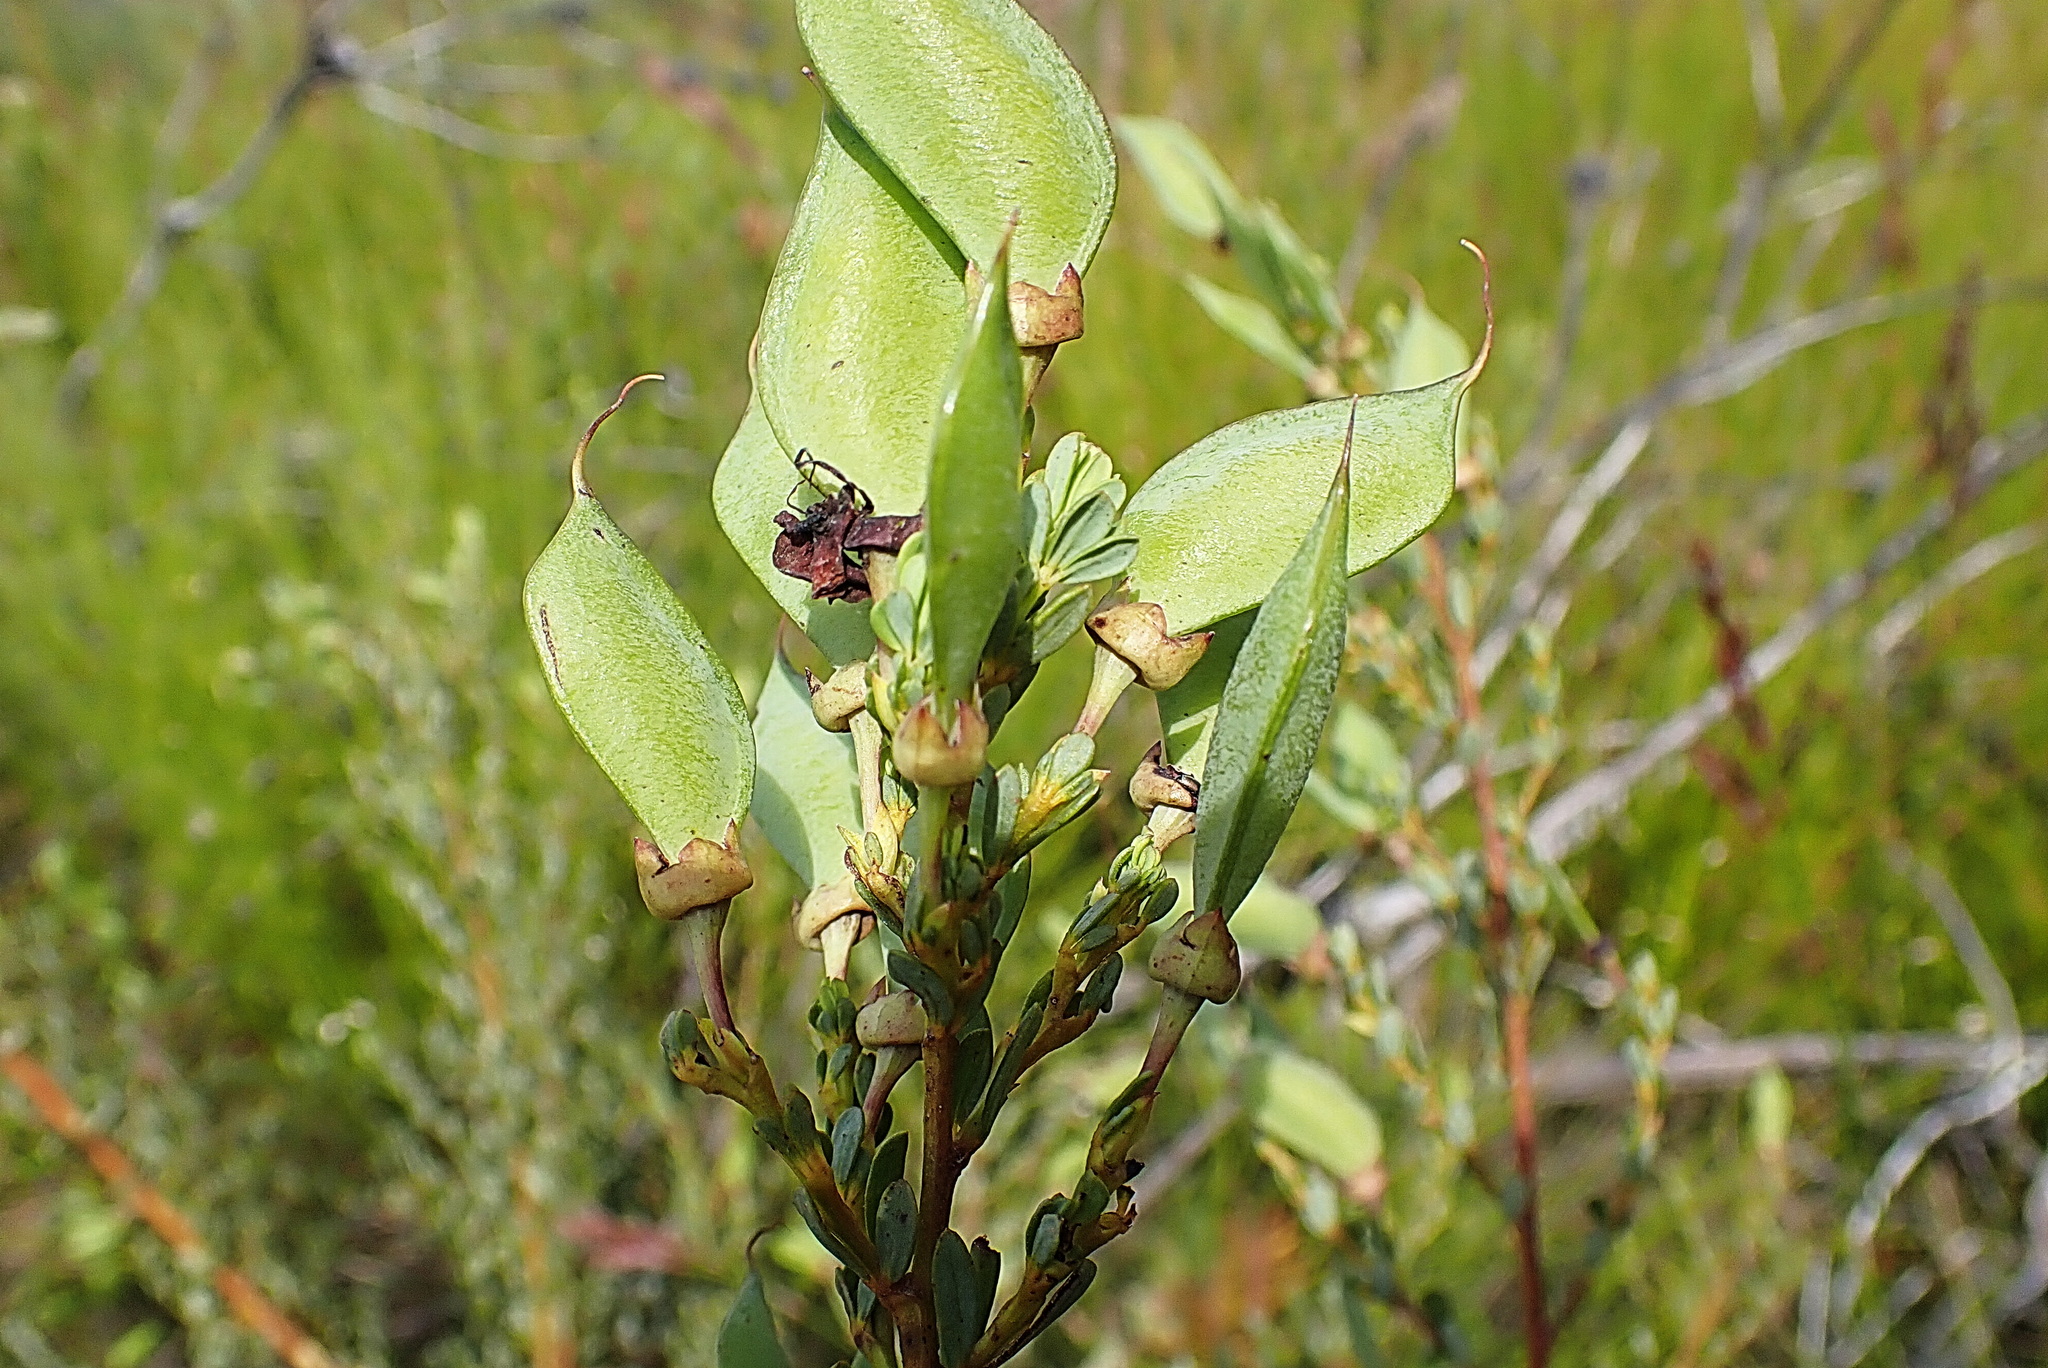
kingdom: Plantae
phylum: Tracheophyta
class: Magnoliopsida
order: Fabales
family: Fabaceae
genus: Cyclopia
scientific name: Cyclopia subternata
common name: Honeybush tea
